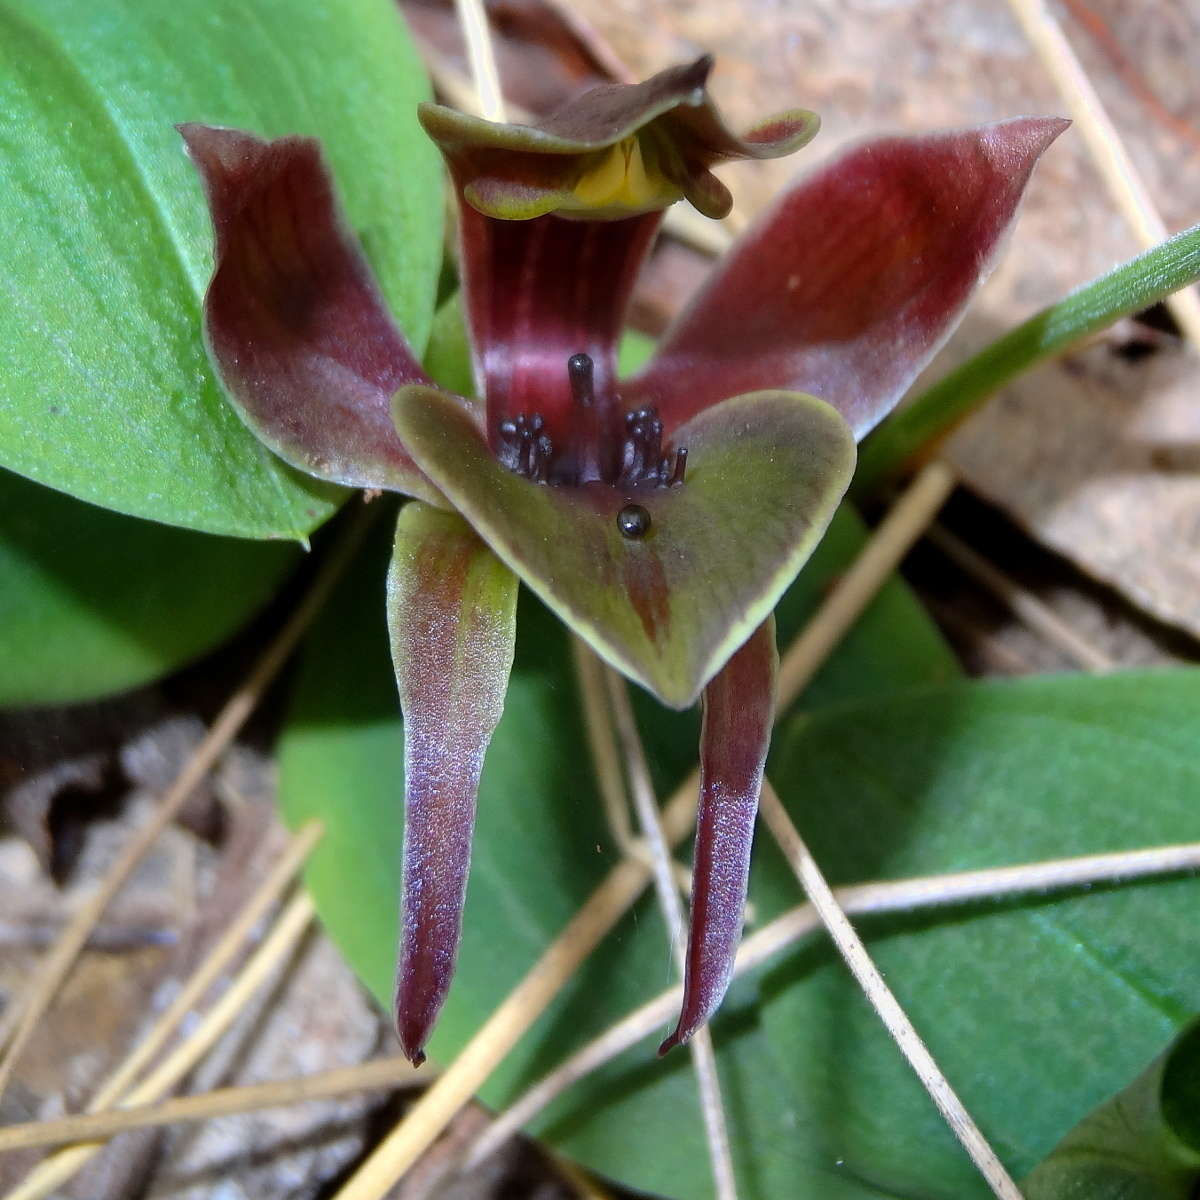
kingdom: Plantae
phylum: Tracheophyta
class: Liliopsida
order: Asparagales
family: Orchidaceae
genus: Chiloglottis
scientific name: Chiloglottis valida
